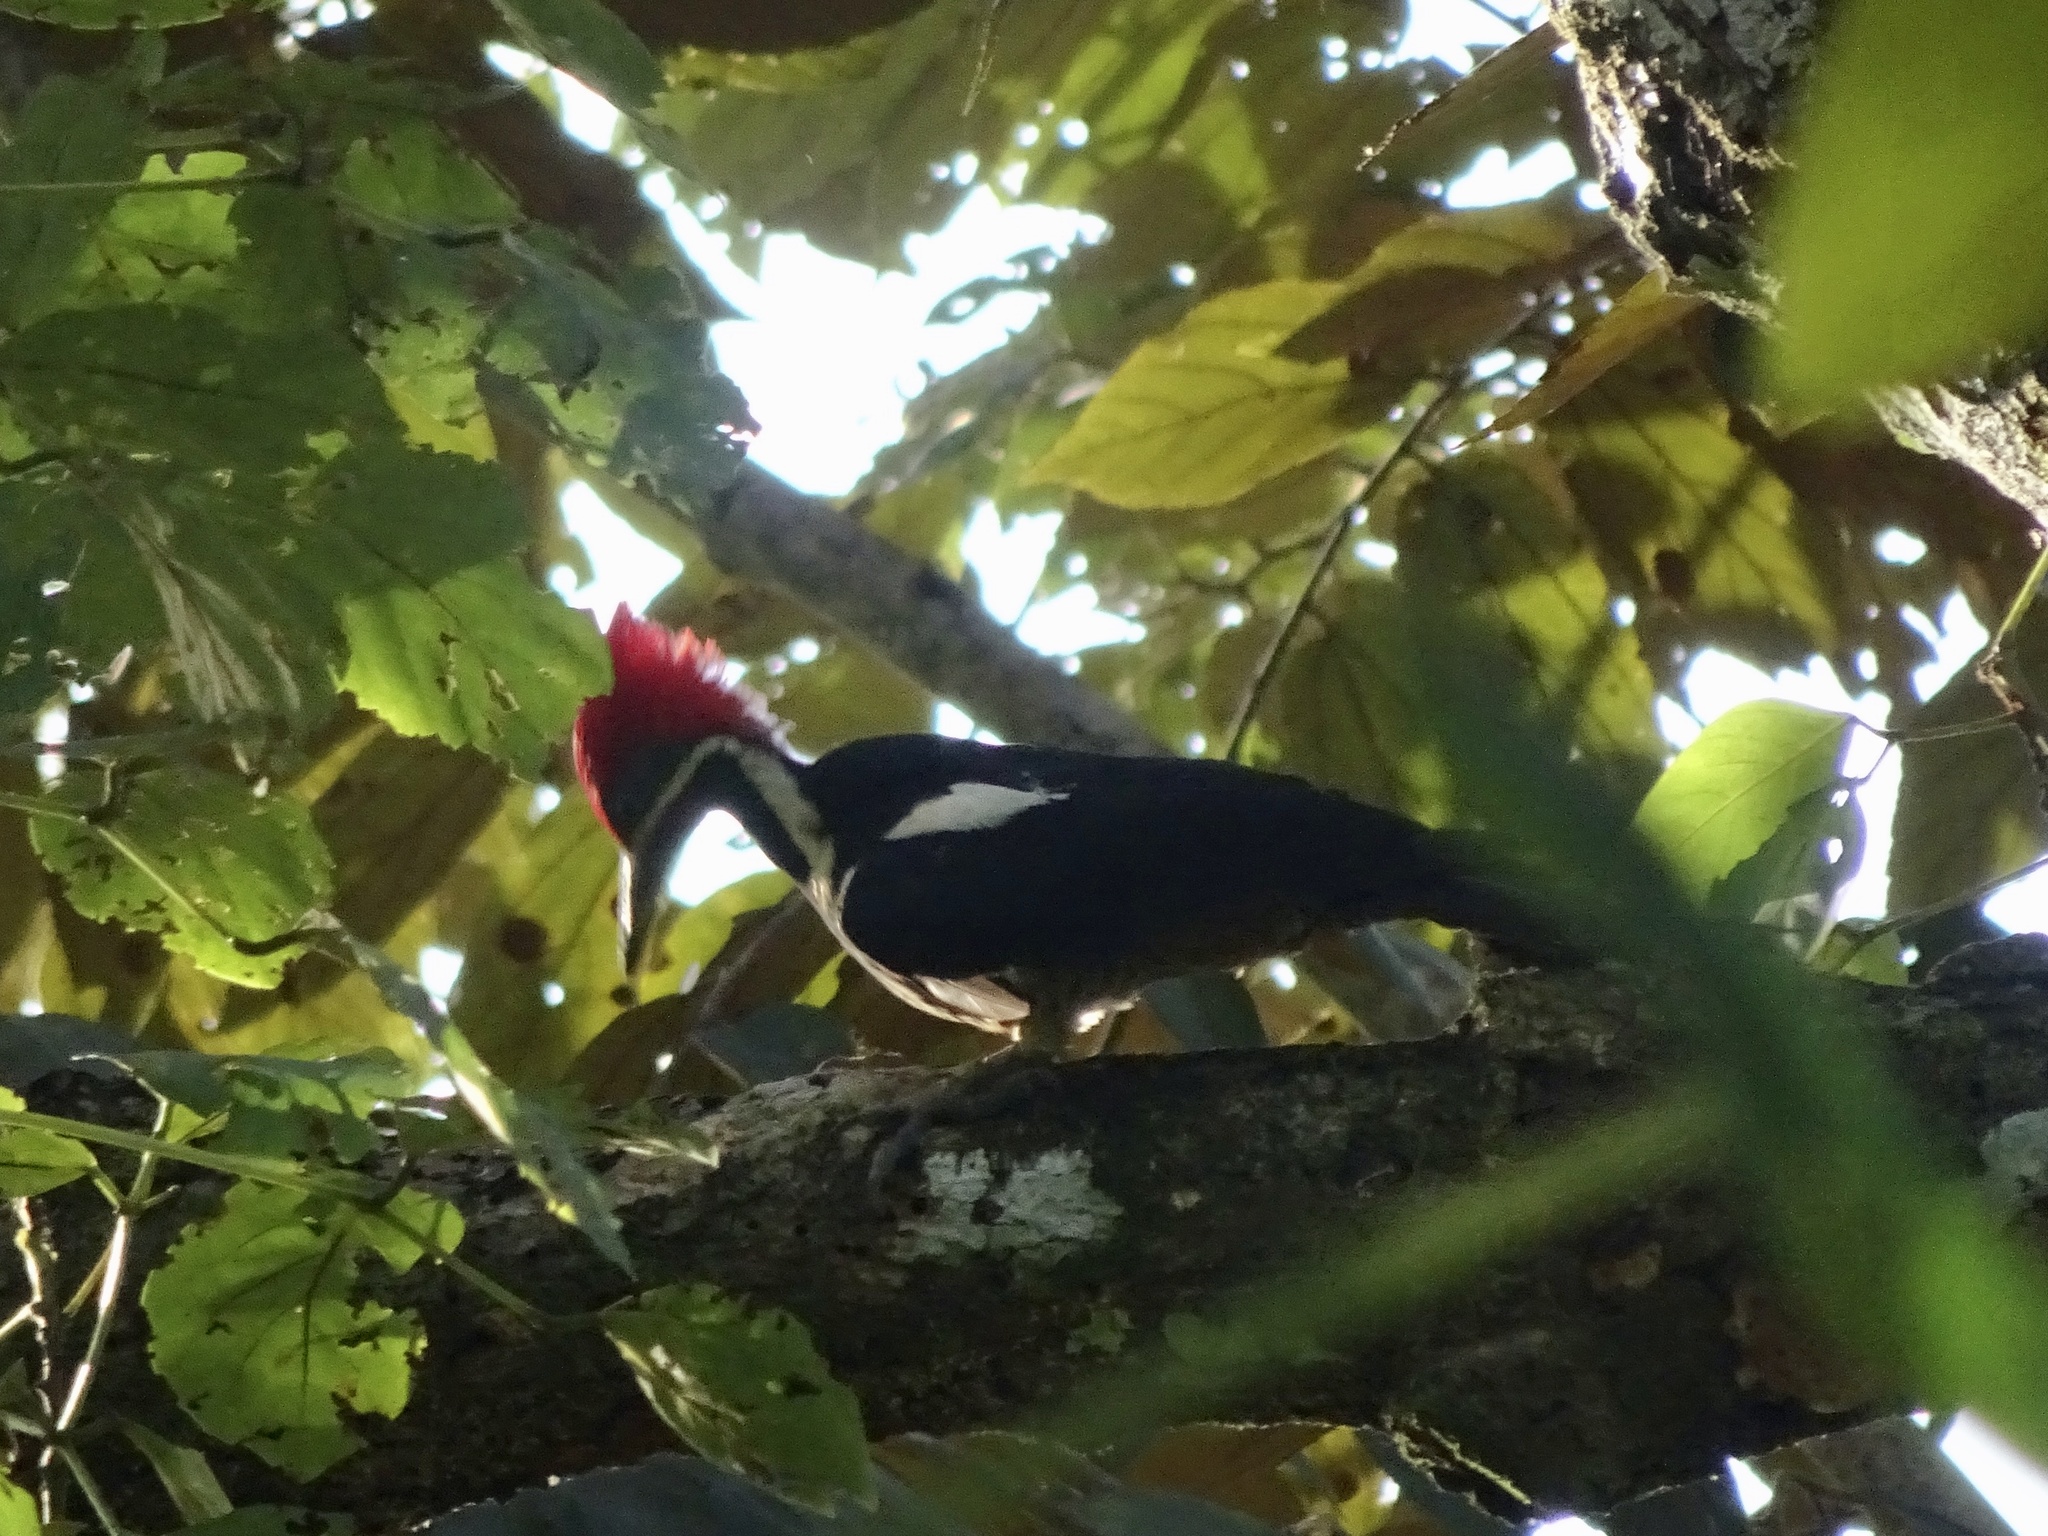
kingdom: Animalia
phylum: Chordata
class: Aves
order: Piciformes
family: Picidae
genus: Dryocopus
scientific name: Dryocopus lineatus
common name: Lineated woodpecker
